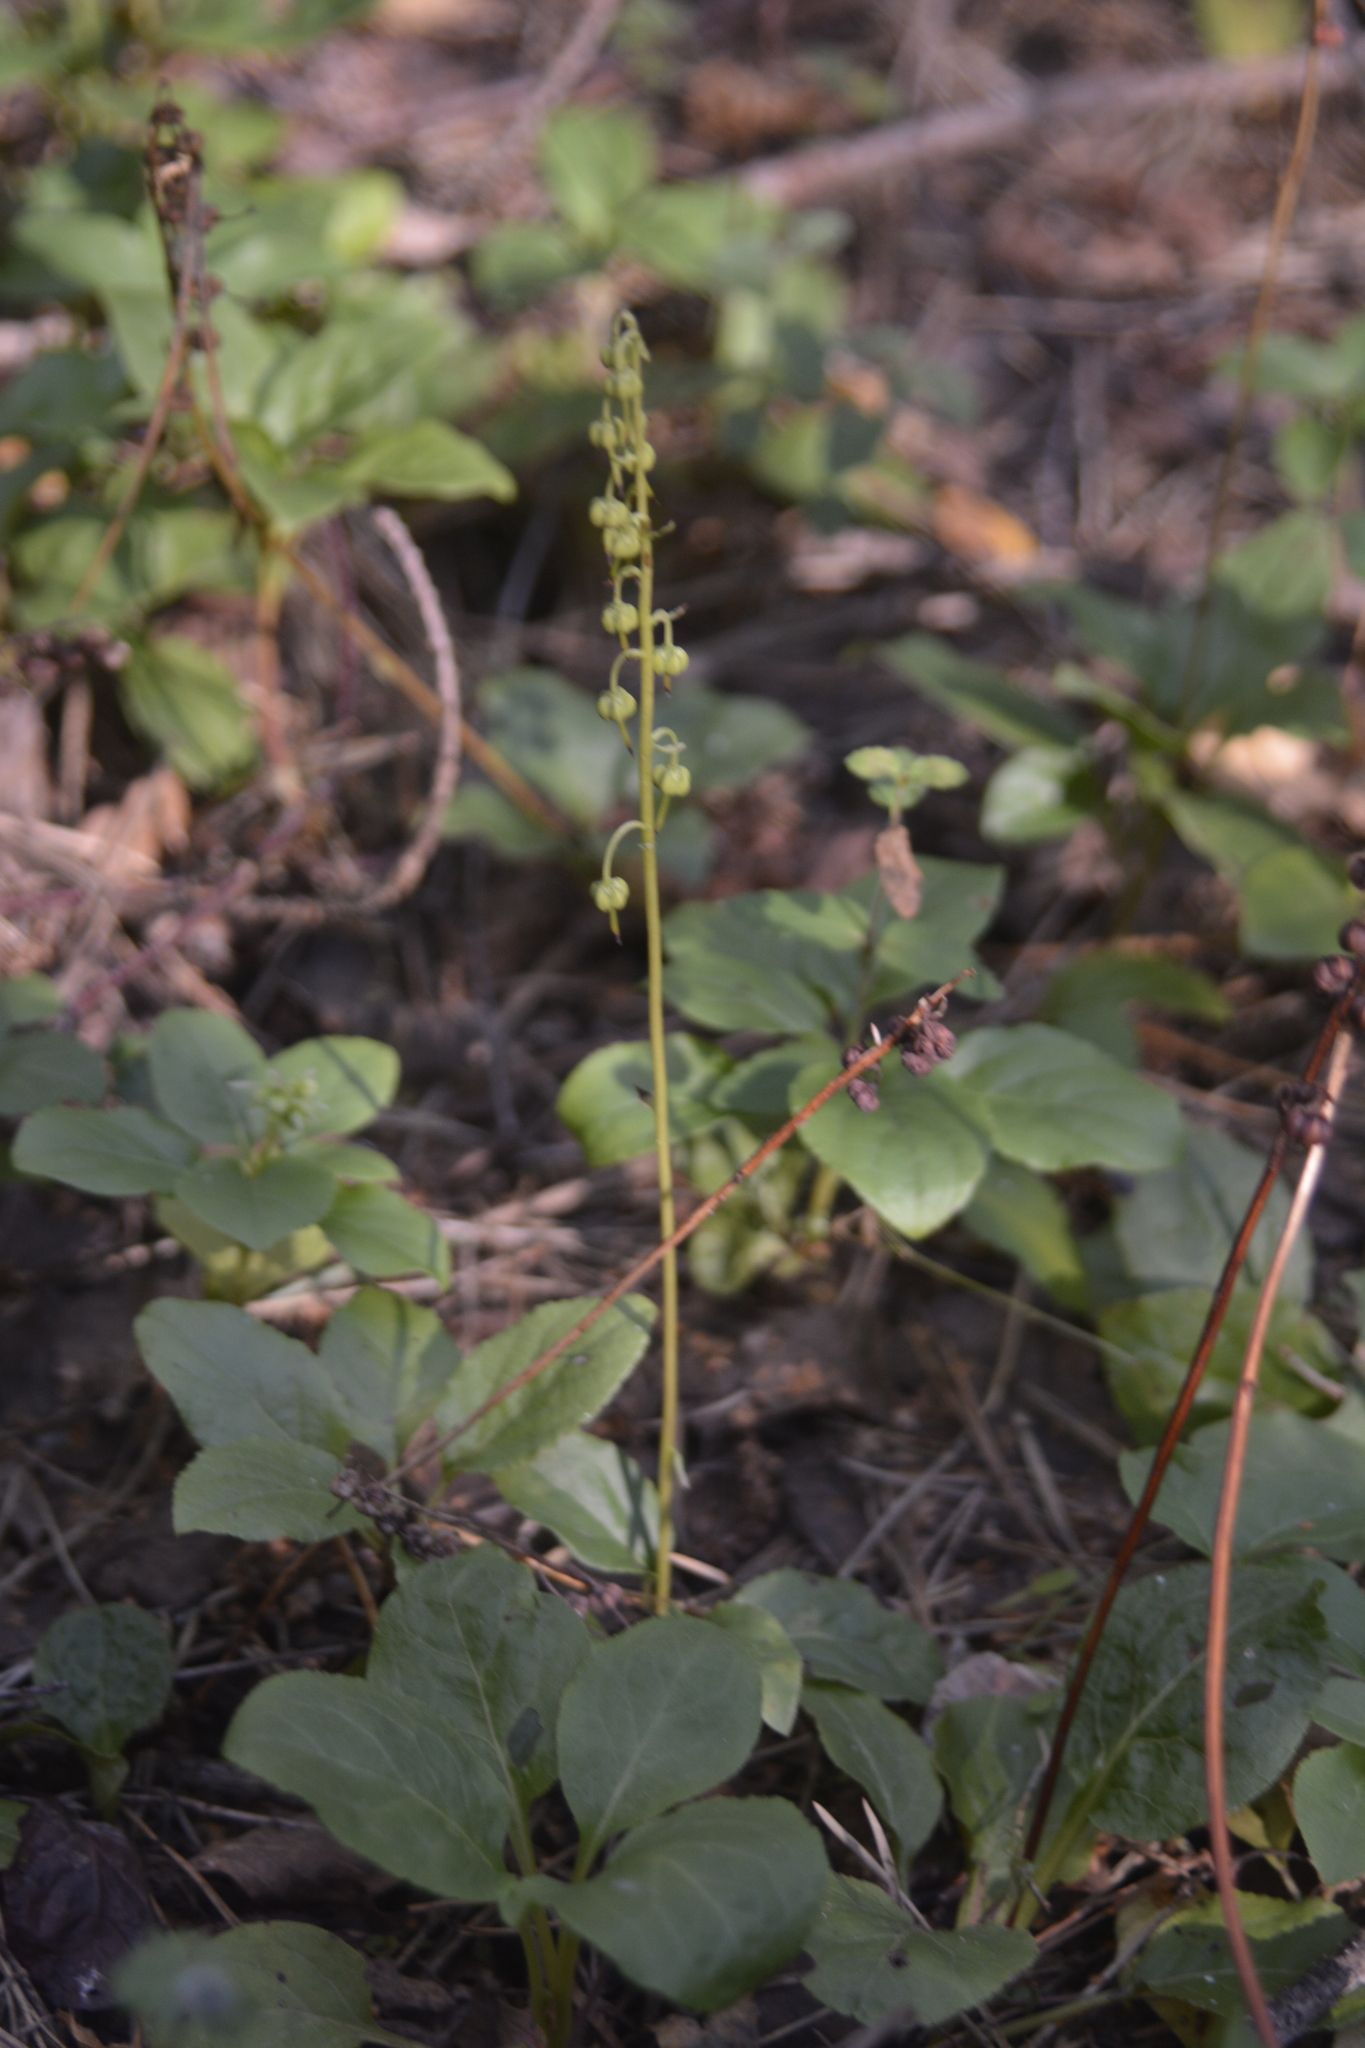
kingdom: Plantae
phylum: Tracheophyta
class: Magnoliopsida
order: Ericales
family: Ericaceae
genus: Orthilia
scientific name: Orthilia secunda
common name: One-sided orthilia
